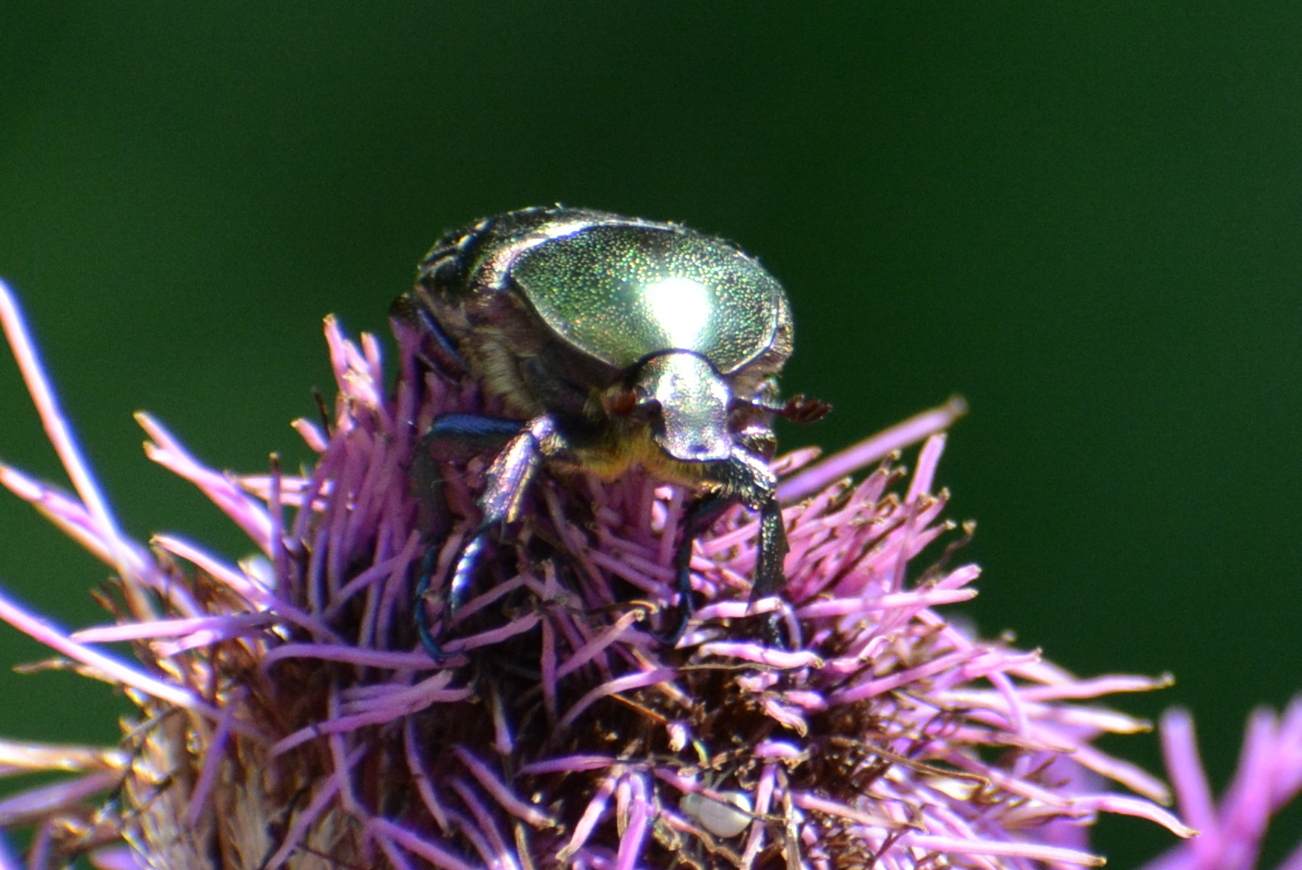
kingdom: Animalia
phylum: Arthropoda
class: Insecta
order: Coleoptera
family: Scarabaeidae
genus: Protaetia
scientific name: Protaetia cuprea
